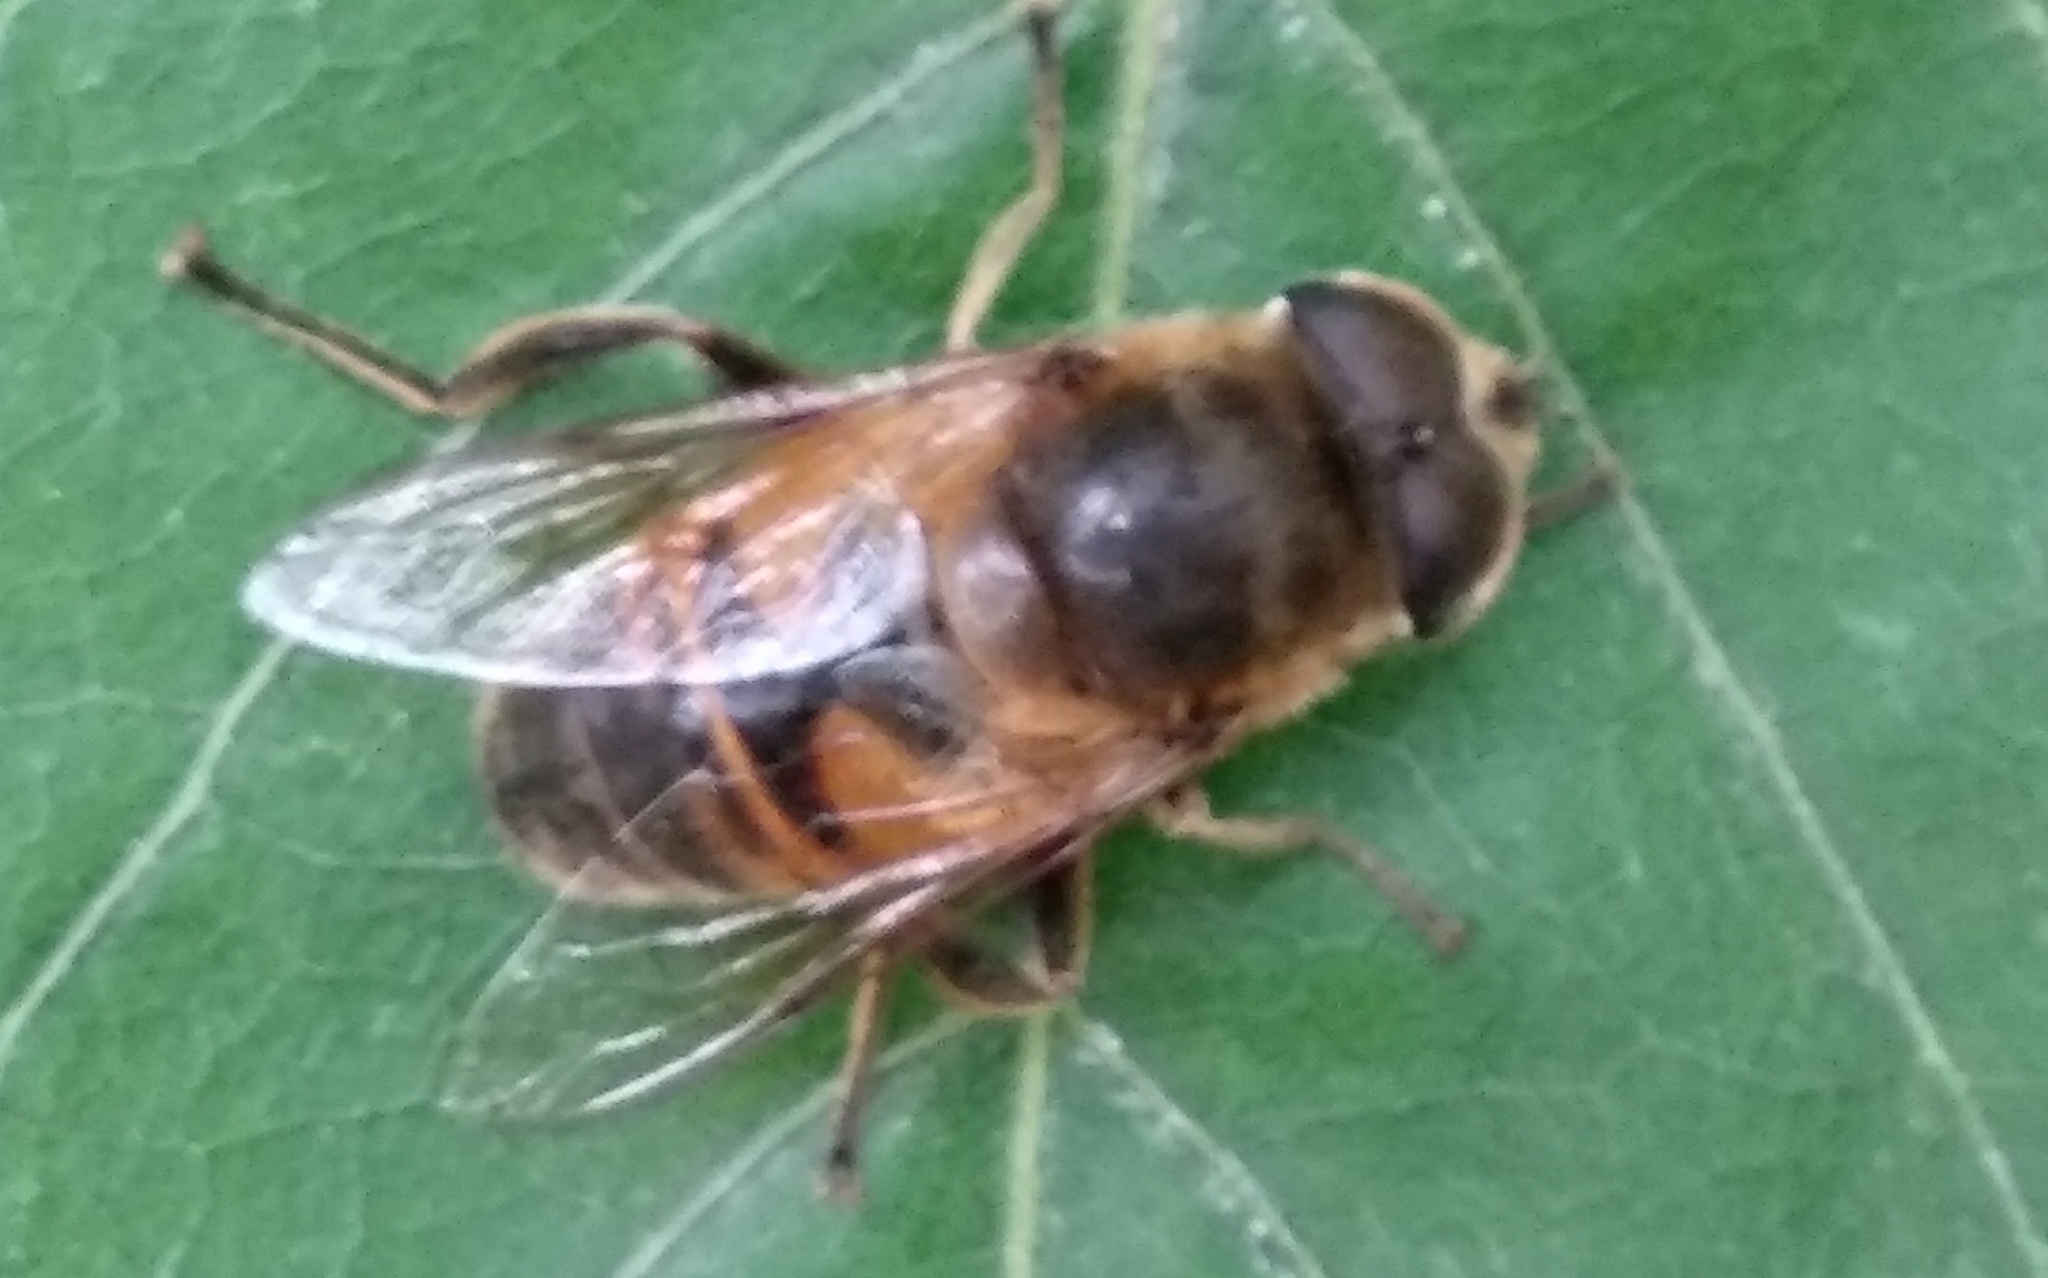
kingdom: Animalia
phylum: Arthropoda
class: Insecta
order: Diptera
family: Syrphidae
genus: Eristalis
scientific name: Eristalis tenax
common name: Drone fly
